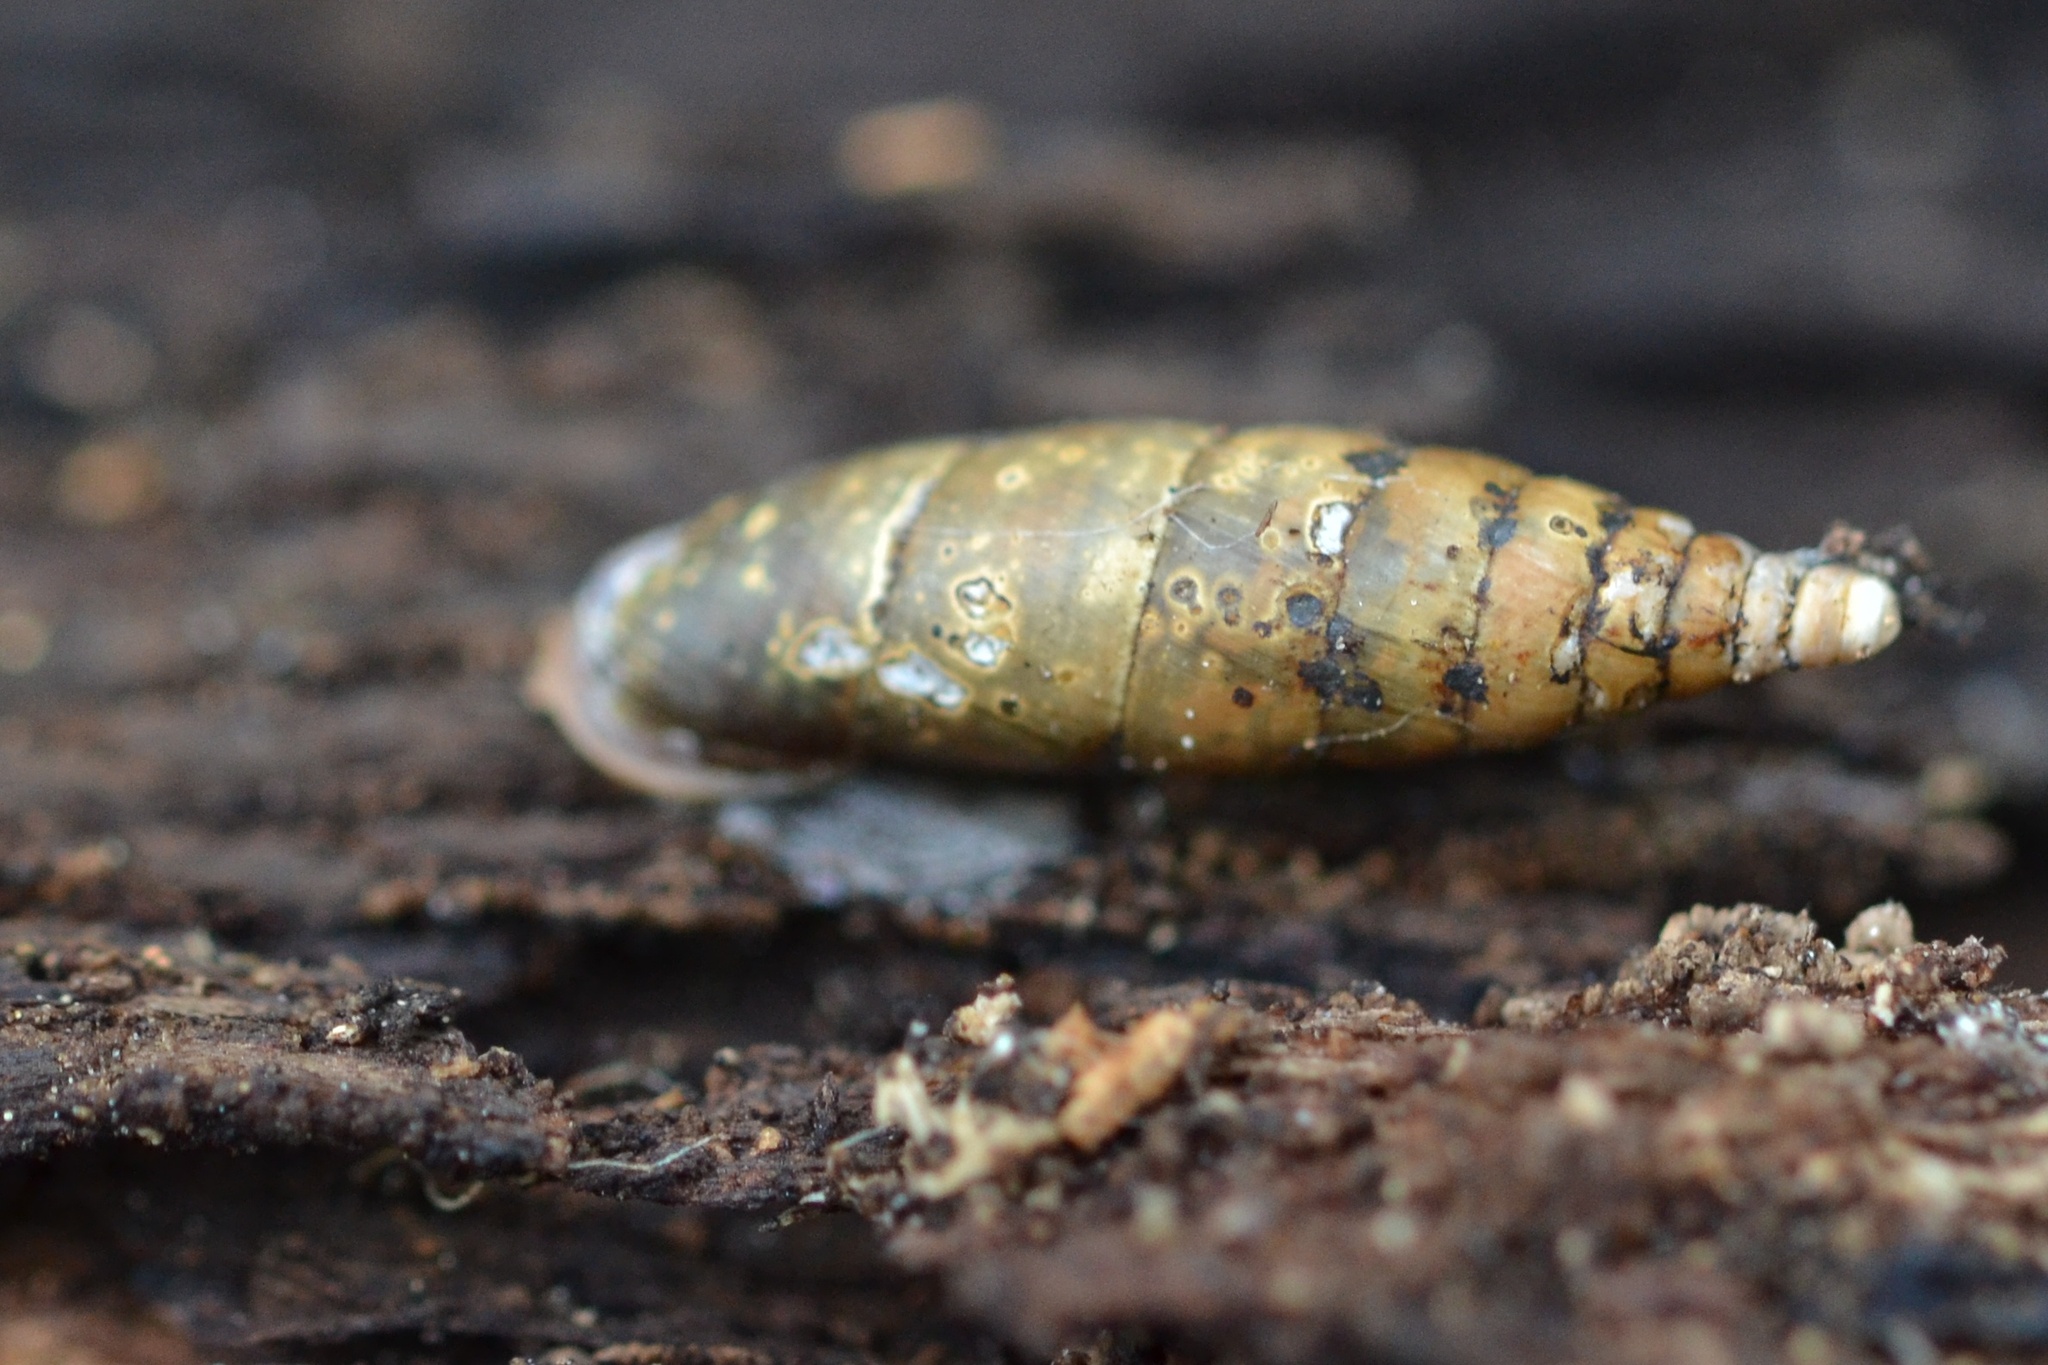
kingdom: Animalia
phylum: Mollusca
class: Gastropoda
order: Stylommatophora
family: Clausiliidae
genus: Cochlodina
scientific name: Cochlodina laminata
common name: Plaited door snail
